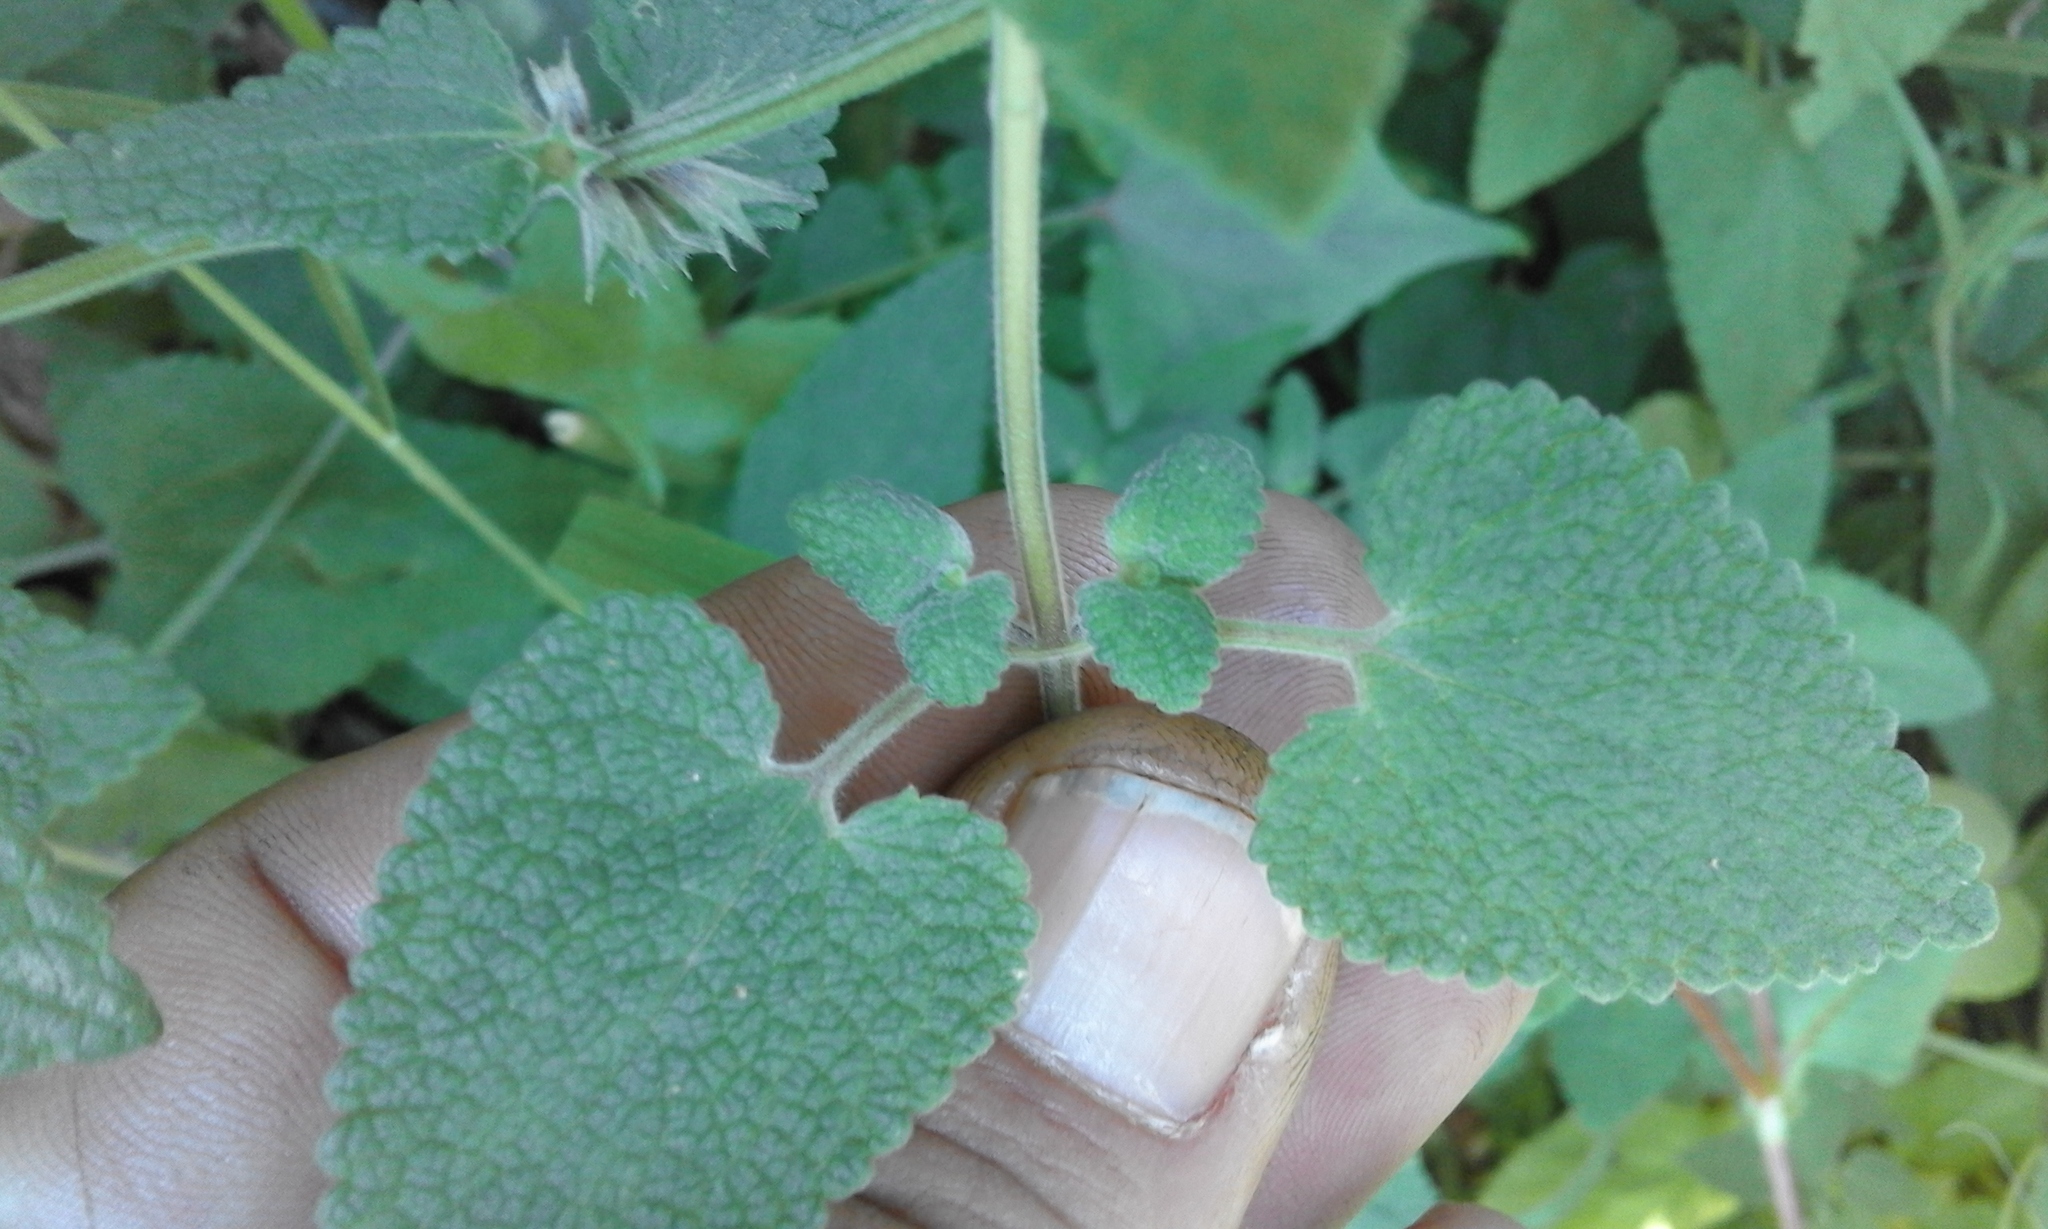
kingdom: Plantae
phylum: Tracheophyta
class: Magnoliopsida
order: Lamiales
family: Lamiaceae
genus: Stachys
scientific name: Stachys grandifolia
